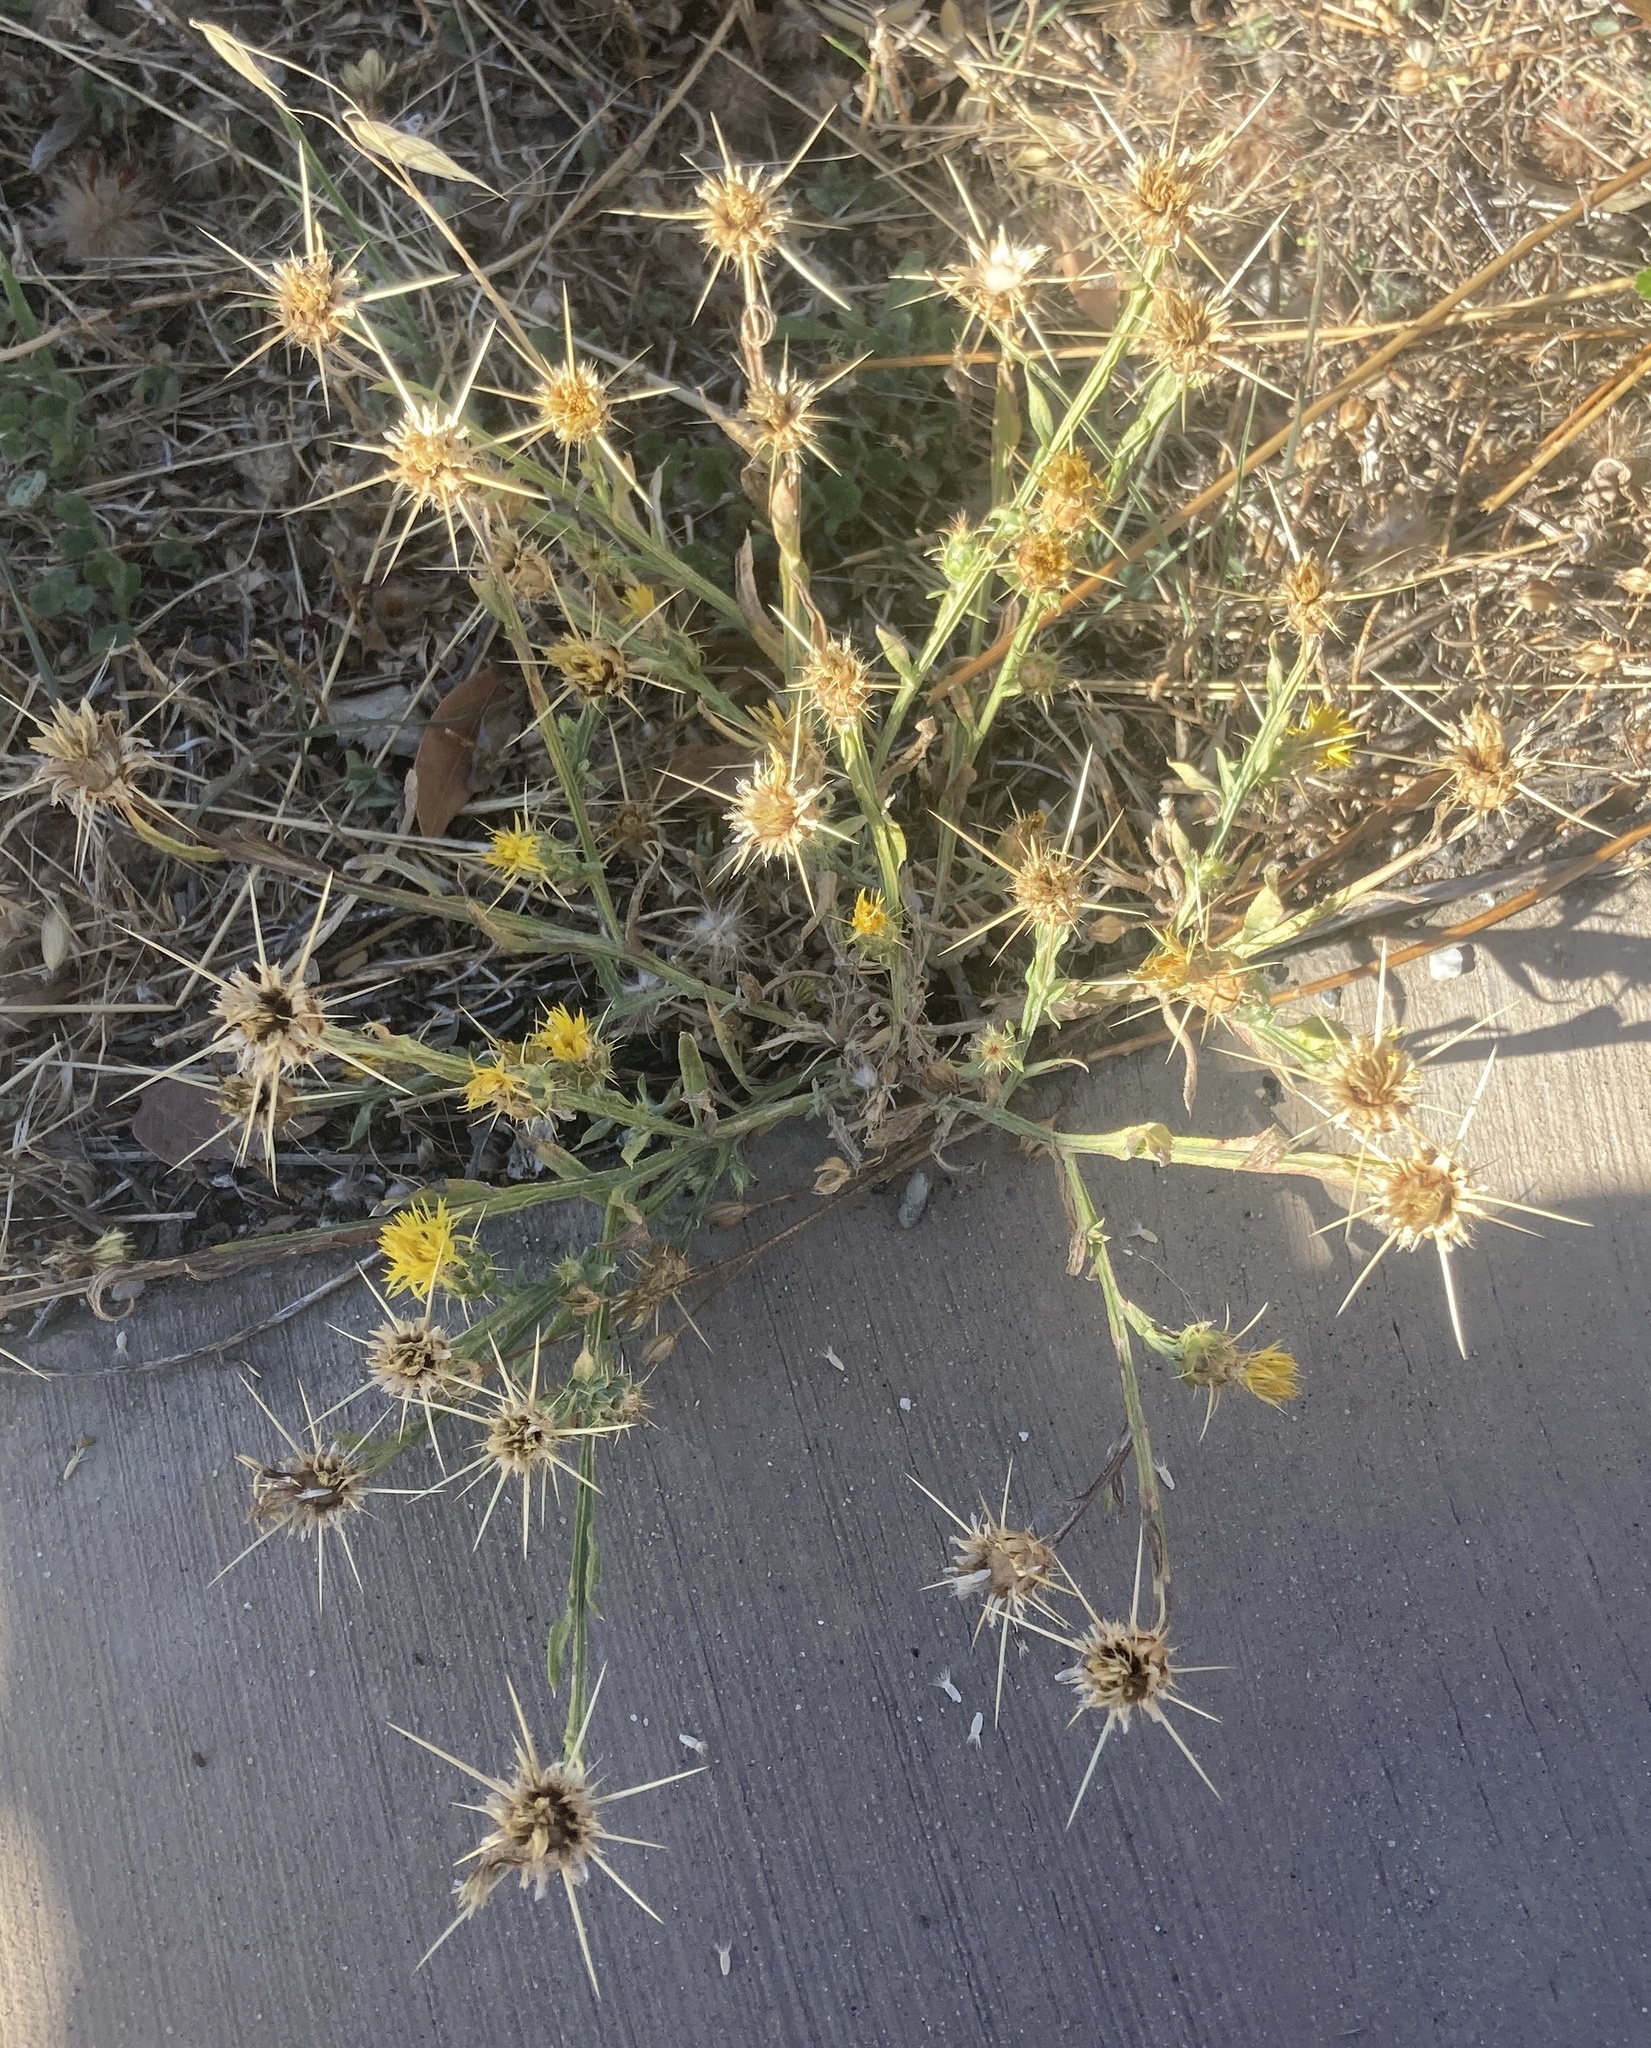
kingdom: Plantae
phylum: Tracheophyta
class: Magnoliopsida
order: Asterales
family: Asteraceae
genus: Centaurea
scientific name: Centaurea solstitialis
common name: Yellow star-thistle
